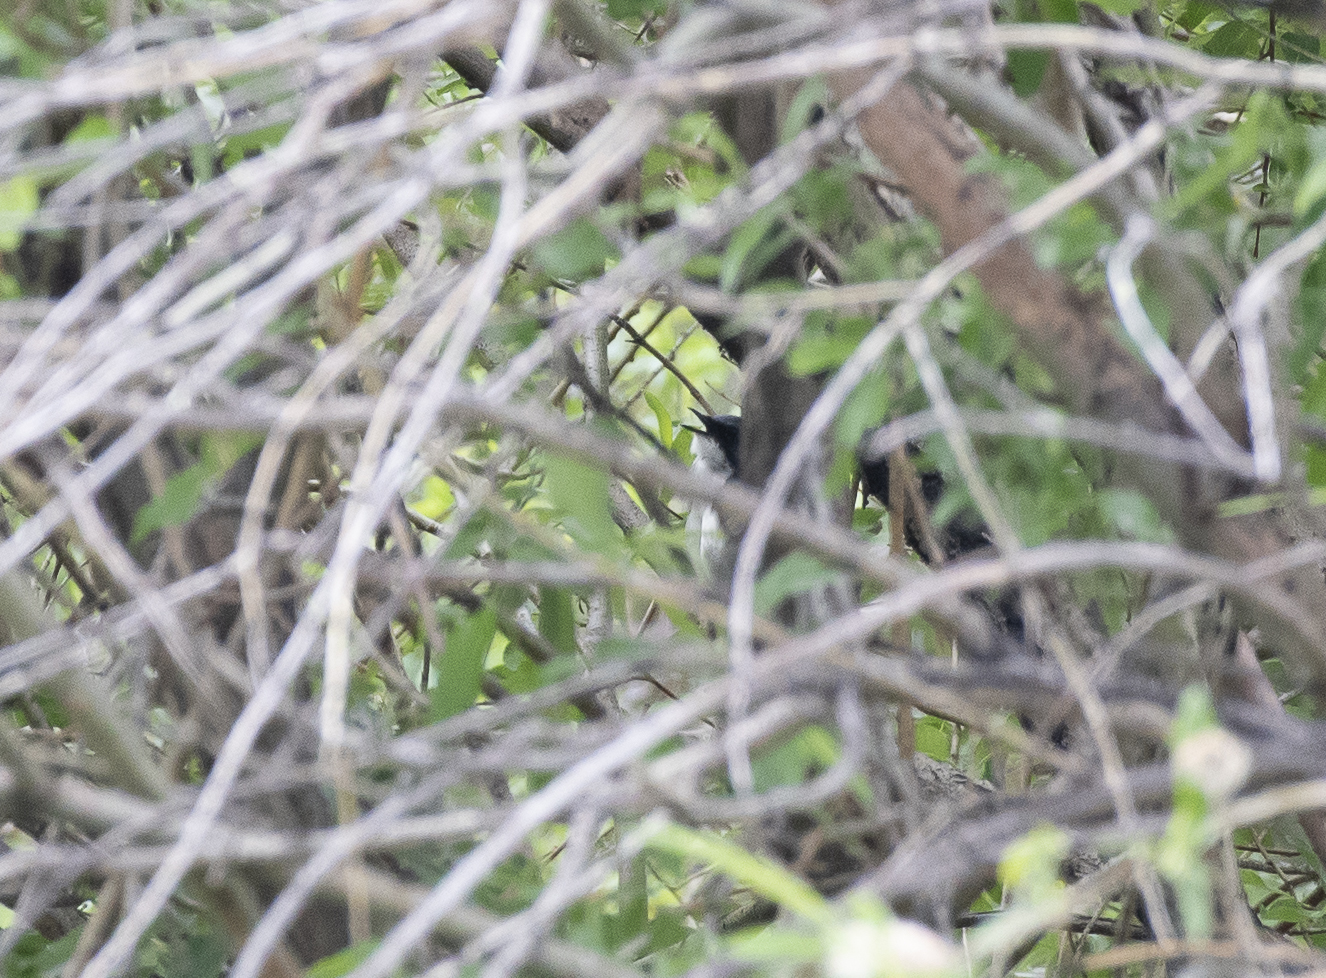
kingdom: Animalia
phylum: Chordata
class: Aves
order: Passeriformes
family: Muscicapidae
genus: Luscinia
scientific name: Luscinia cyane
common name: Siberian blue robin
